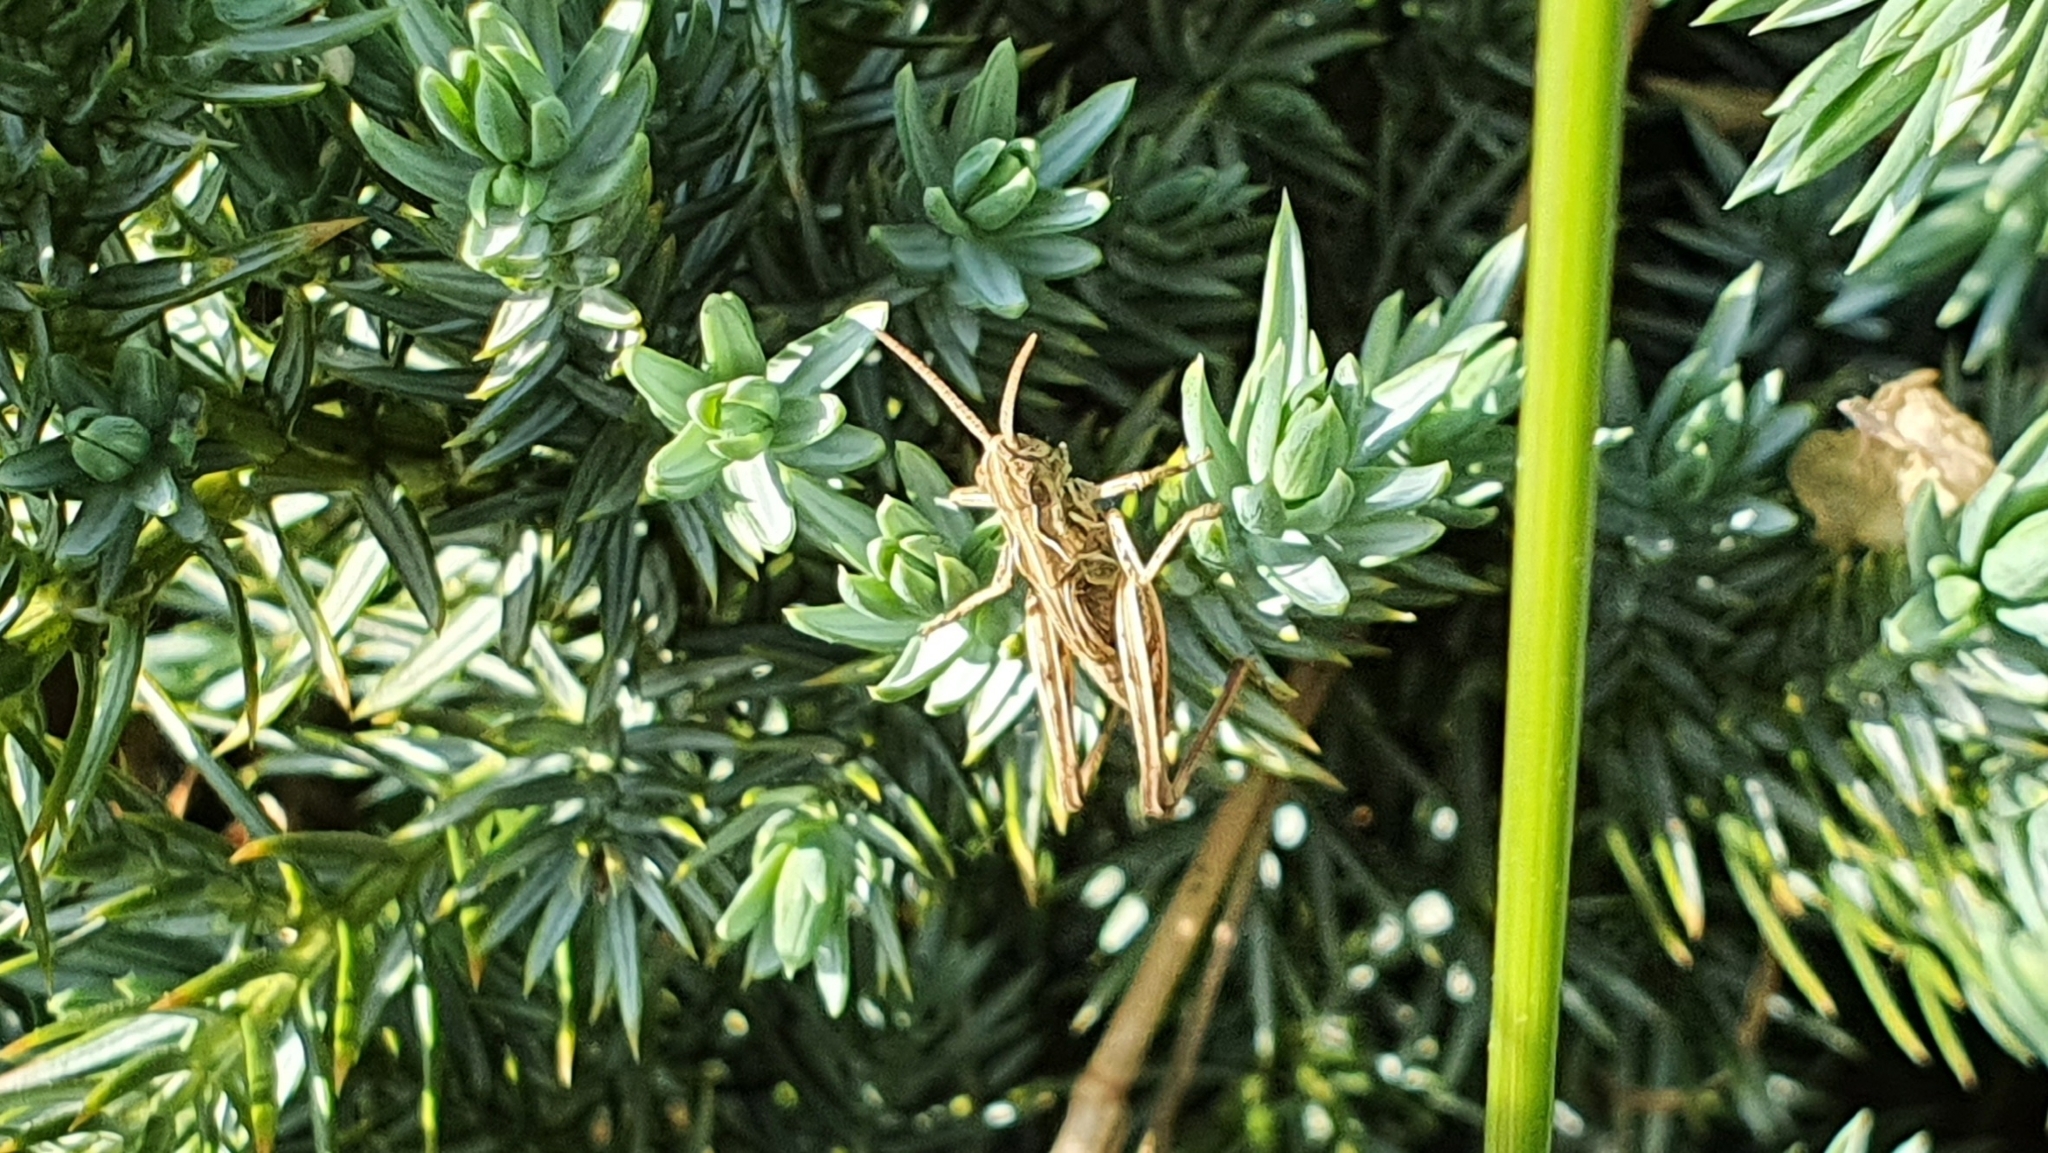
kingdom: Animalia
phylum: Arthropoda
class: Insecta
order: Orthoptera
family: Acrididae
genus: Chorthippus
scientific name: Chorthippus brunneus
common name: Field grasshopper
